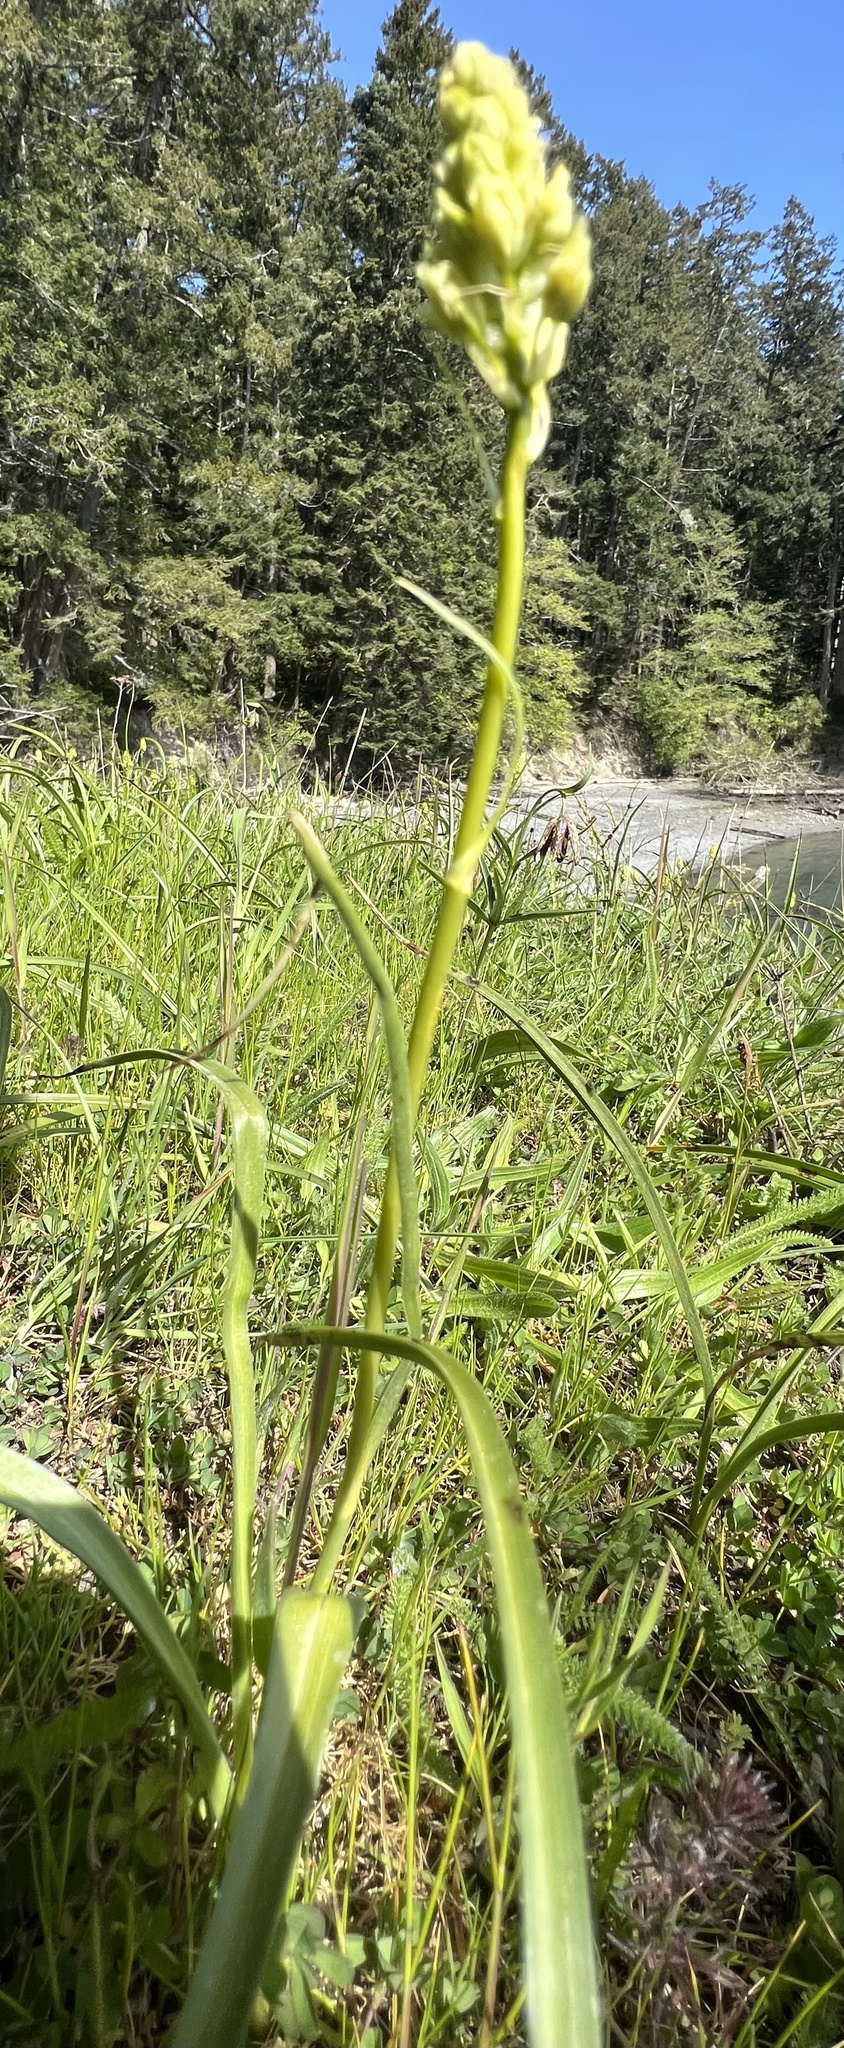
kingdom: Plantae
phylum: Tracheophyta
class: Liliopsida
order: Liliales
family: Melanthiaceae
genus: Toxicoscordion
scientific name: Toxicoscordion venenosum
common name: Meadow death camas
